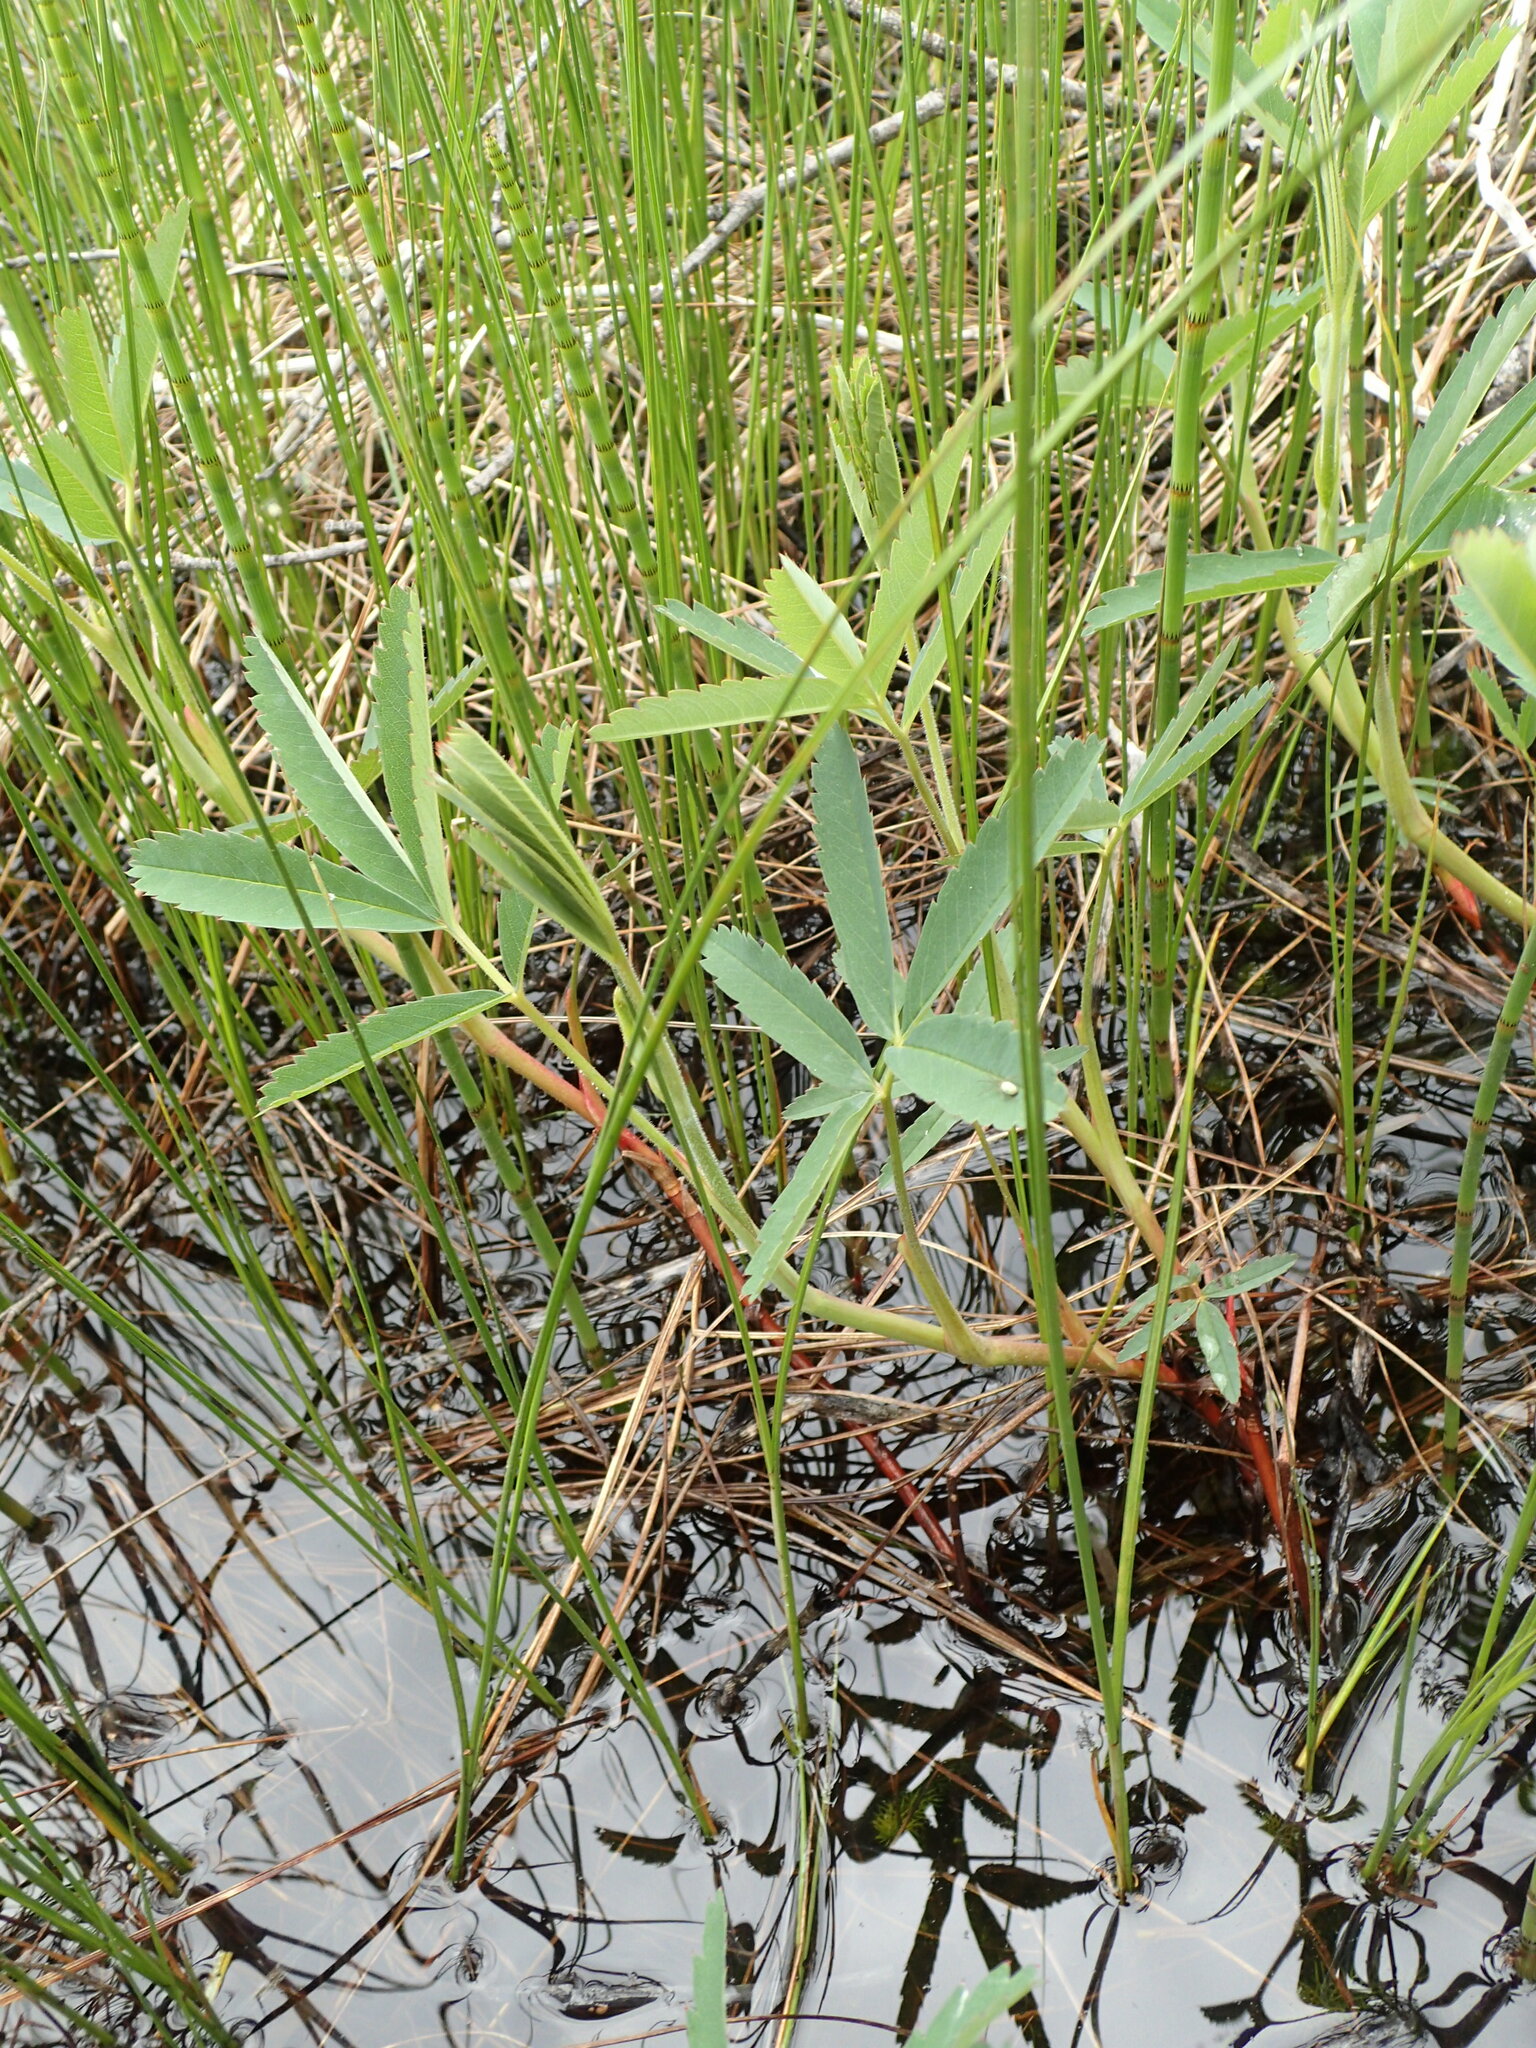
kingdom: Plantae
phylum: Tracheophyta
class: Magnoliopsida
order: Rosales
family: Rosaceae
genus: Comarum
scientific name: Comarum palustre
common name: Marsh cinquefoil
